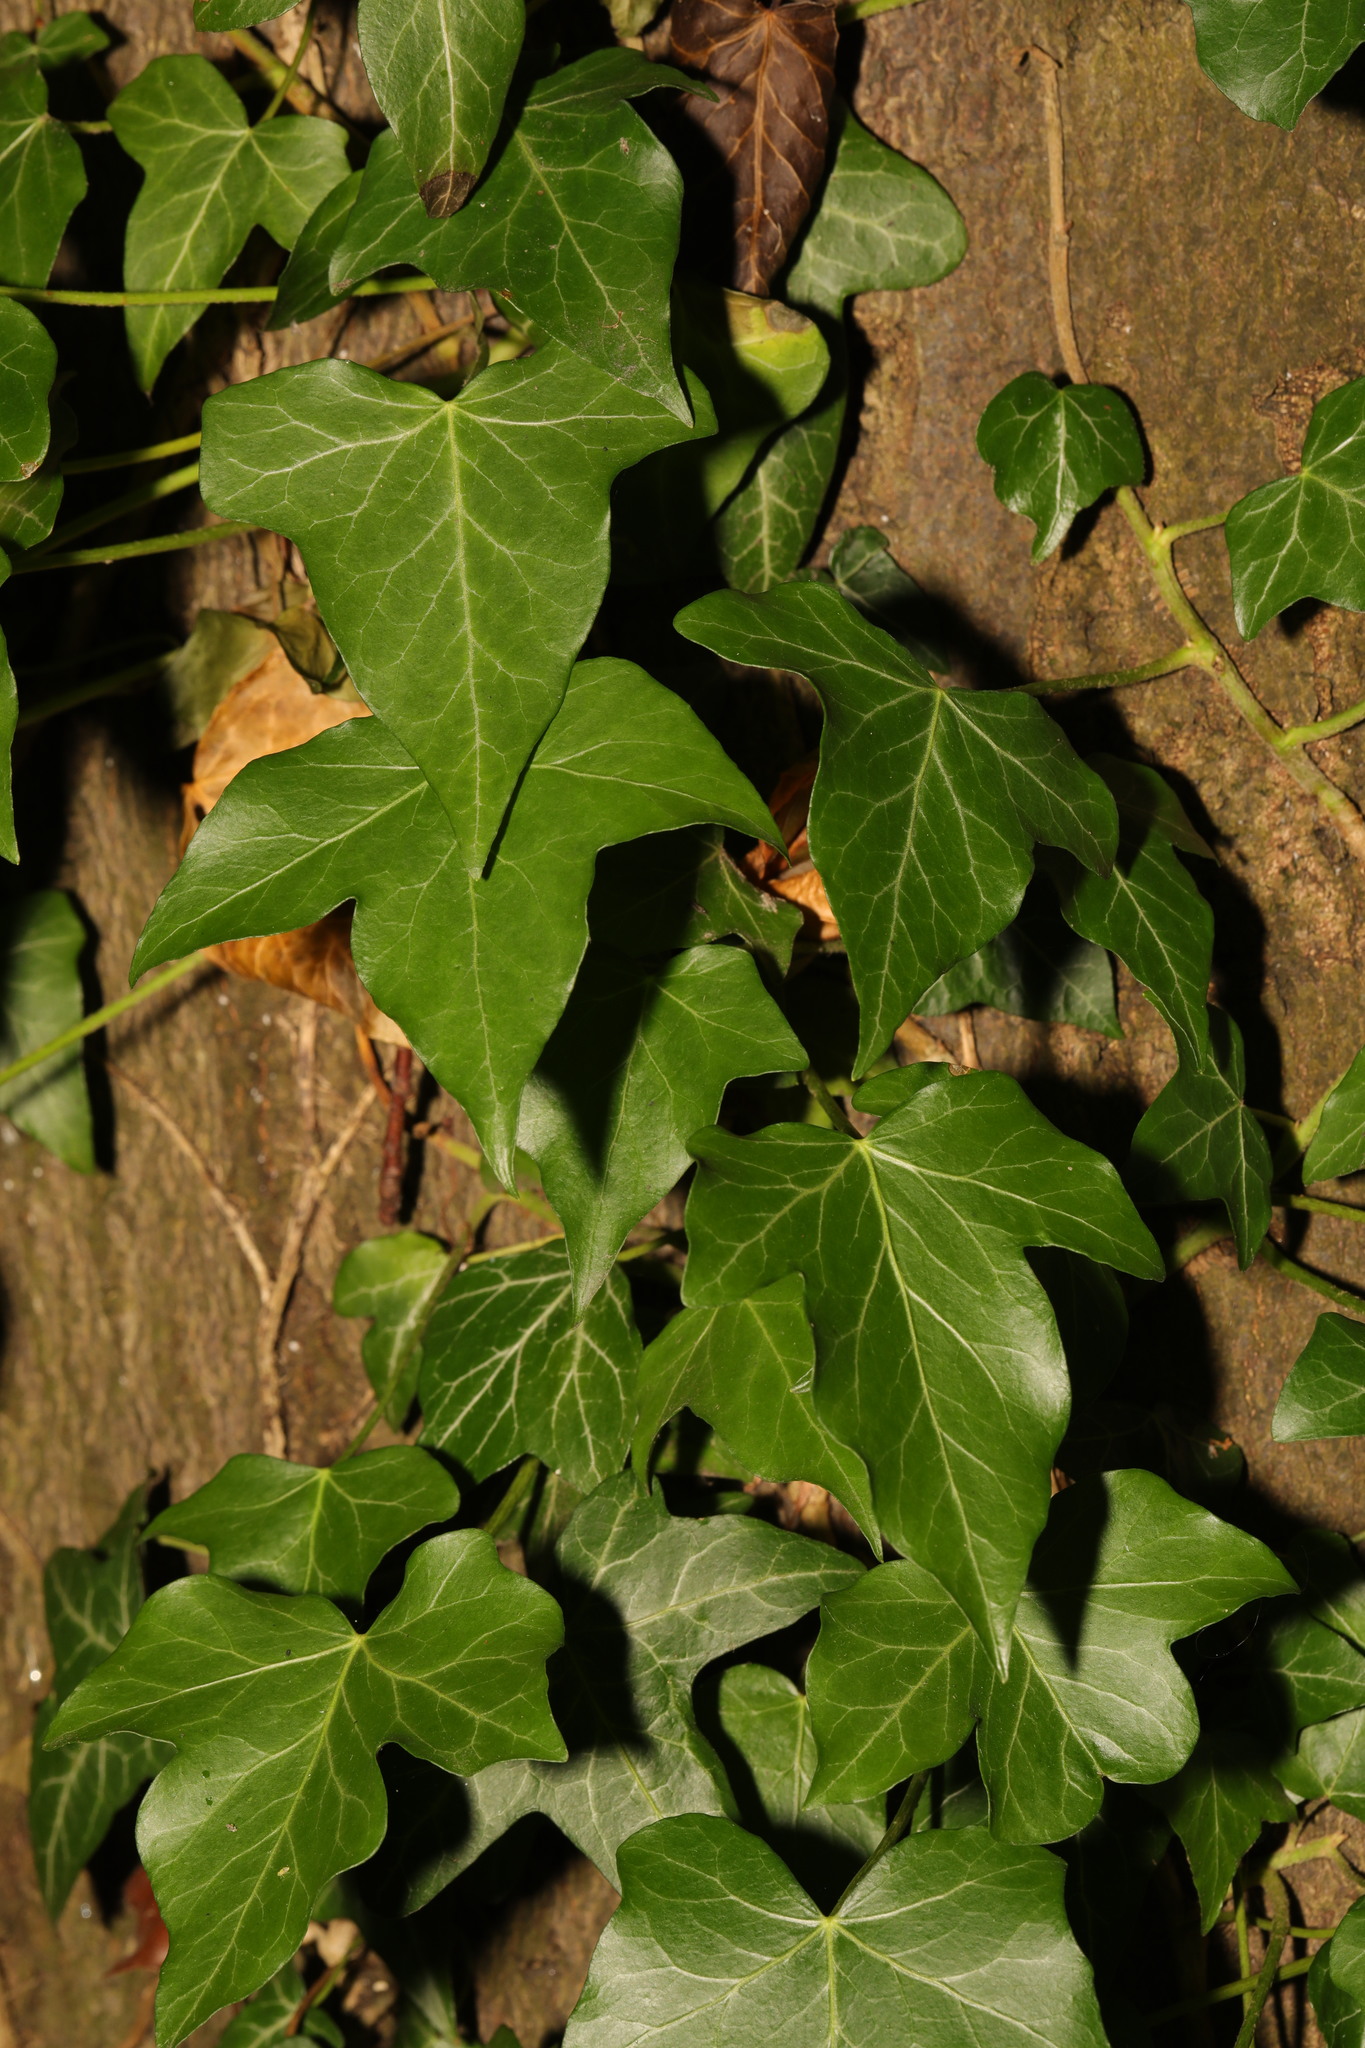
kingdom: Plantae
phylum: Tracheophyta
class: Magnoliopsida
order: Apiales
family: Araliaceae
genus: Hedera
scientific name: Hedera helix
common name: Ivy
